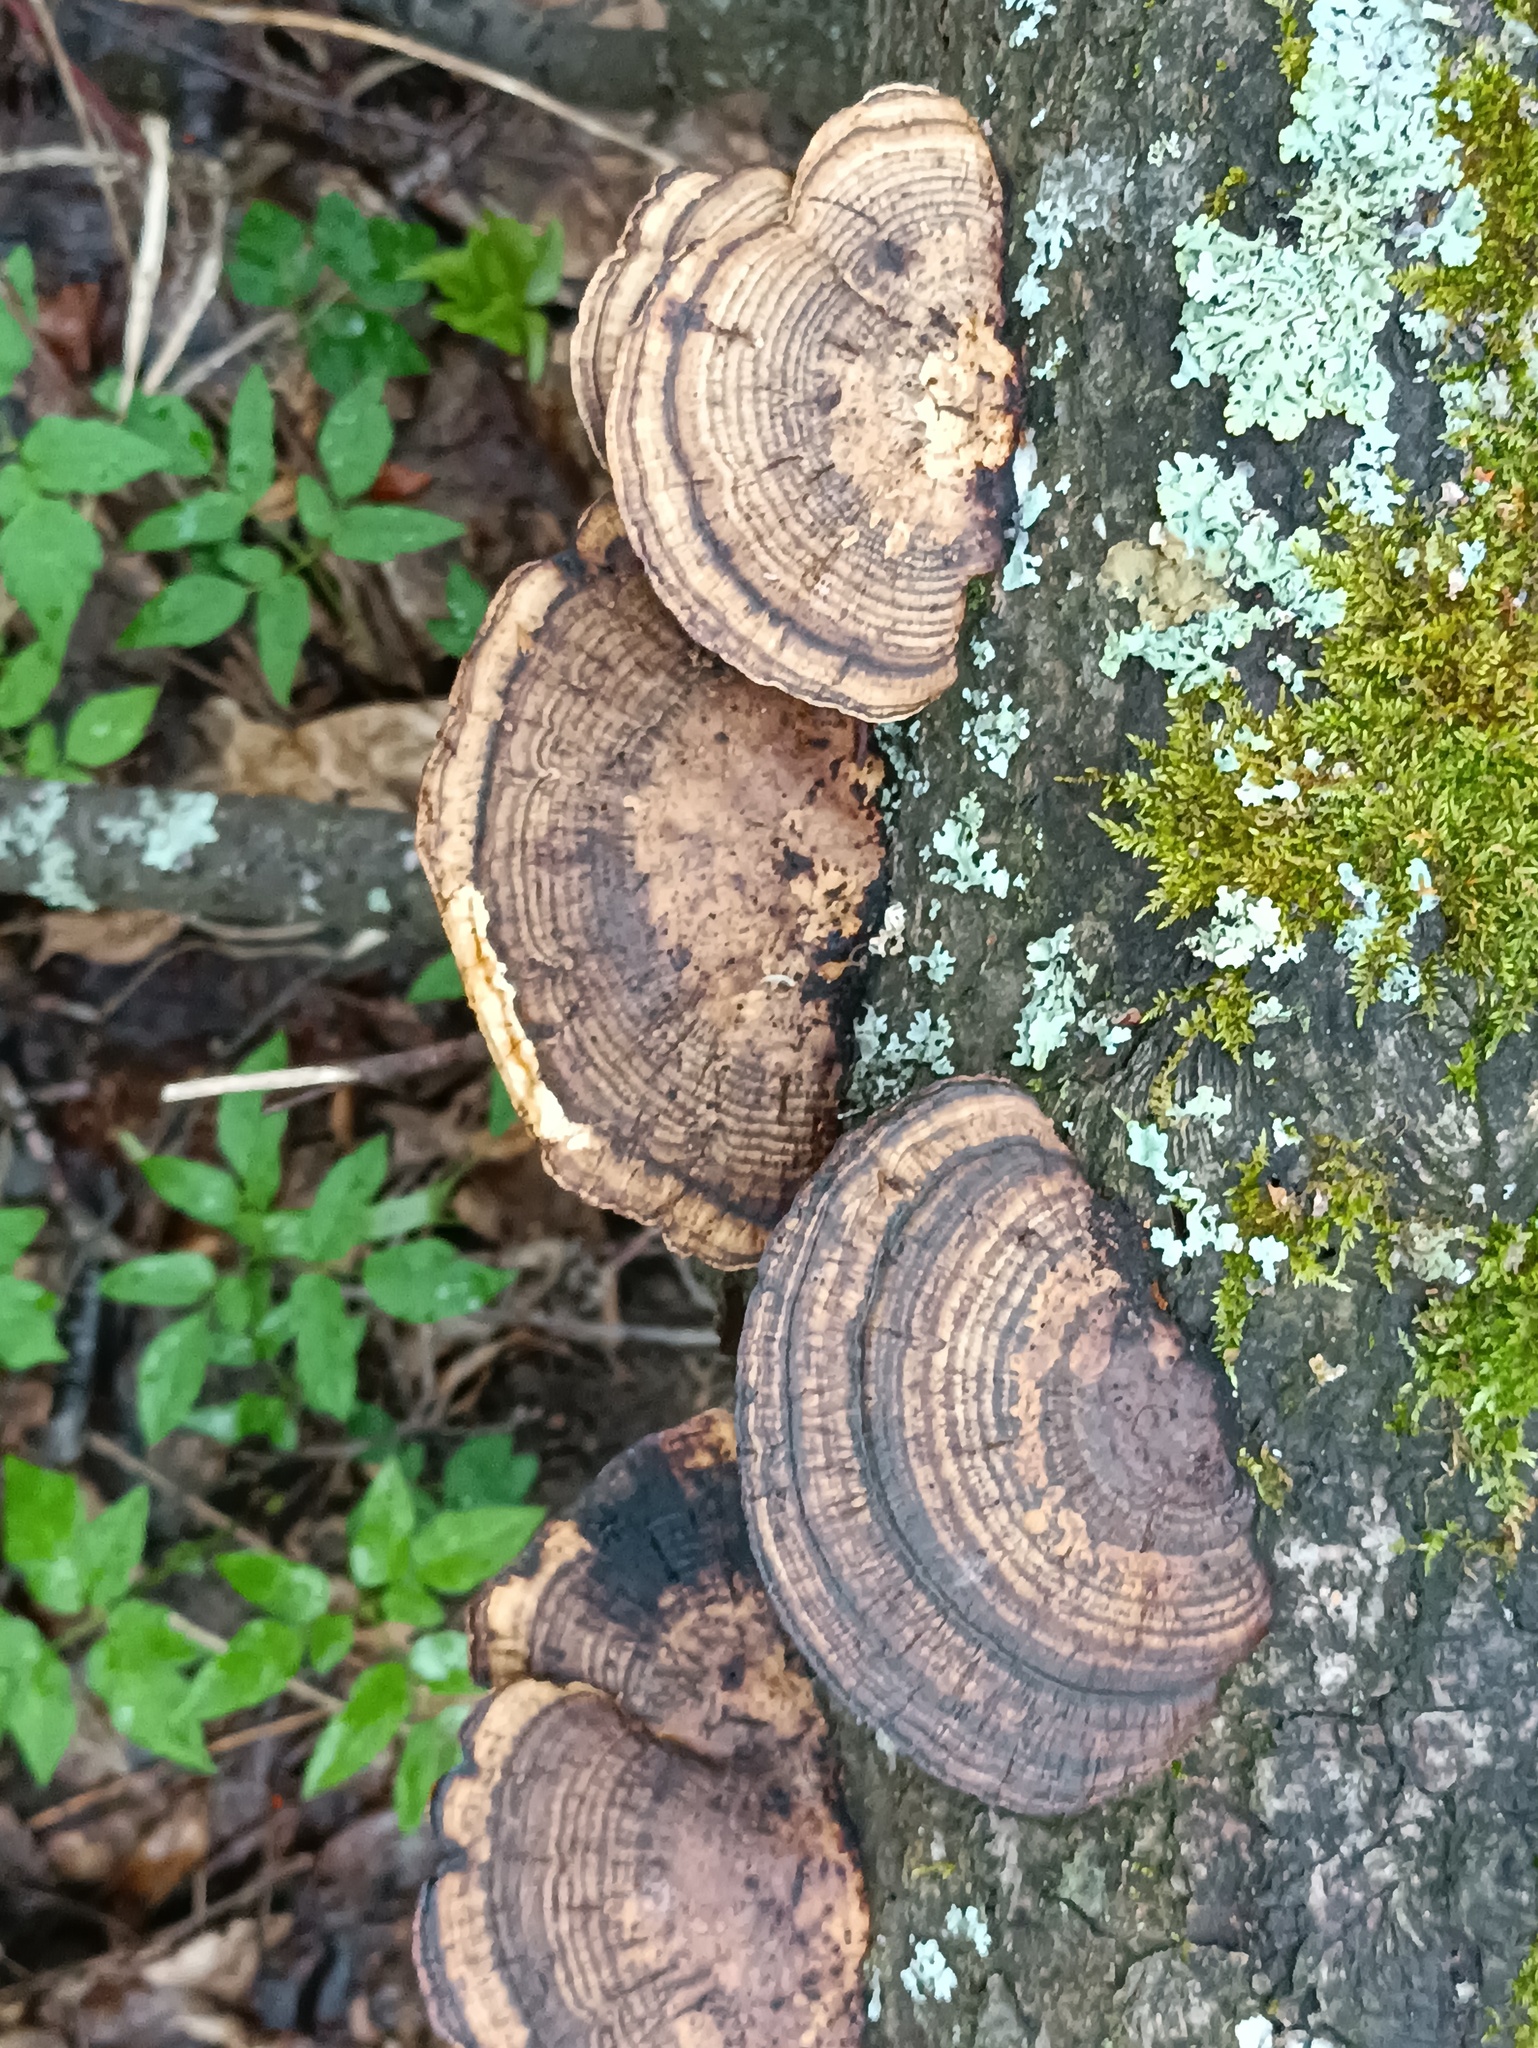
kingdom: Fungi
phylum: Basidiomycota
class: Agaricomycetes
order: Polyporales
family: Polyporaceae
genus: Daedaleopsis
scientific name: Daedaleopsis confragosa
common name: Blushing bracket
